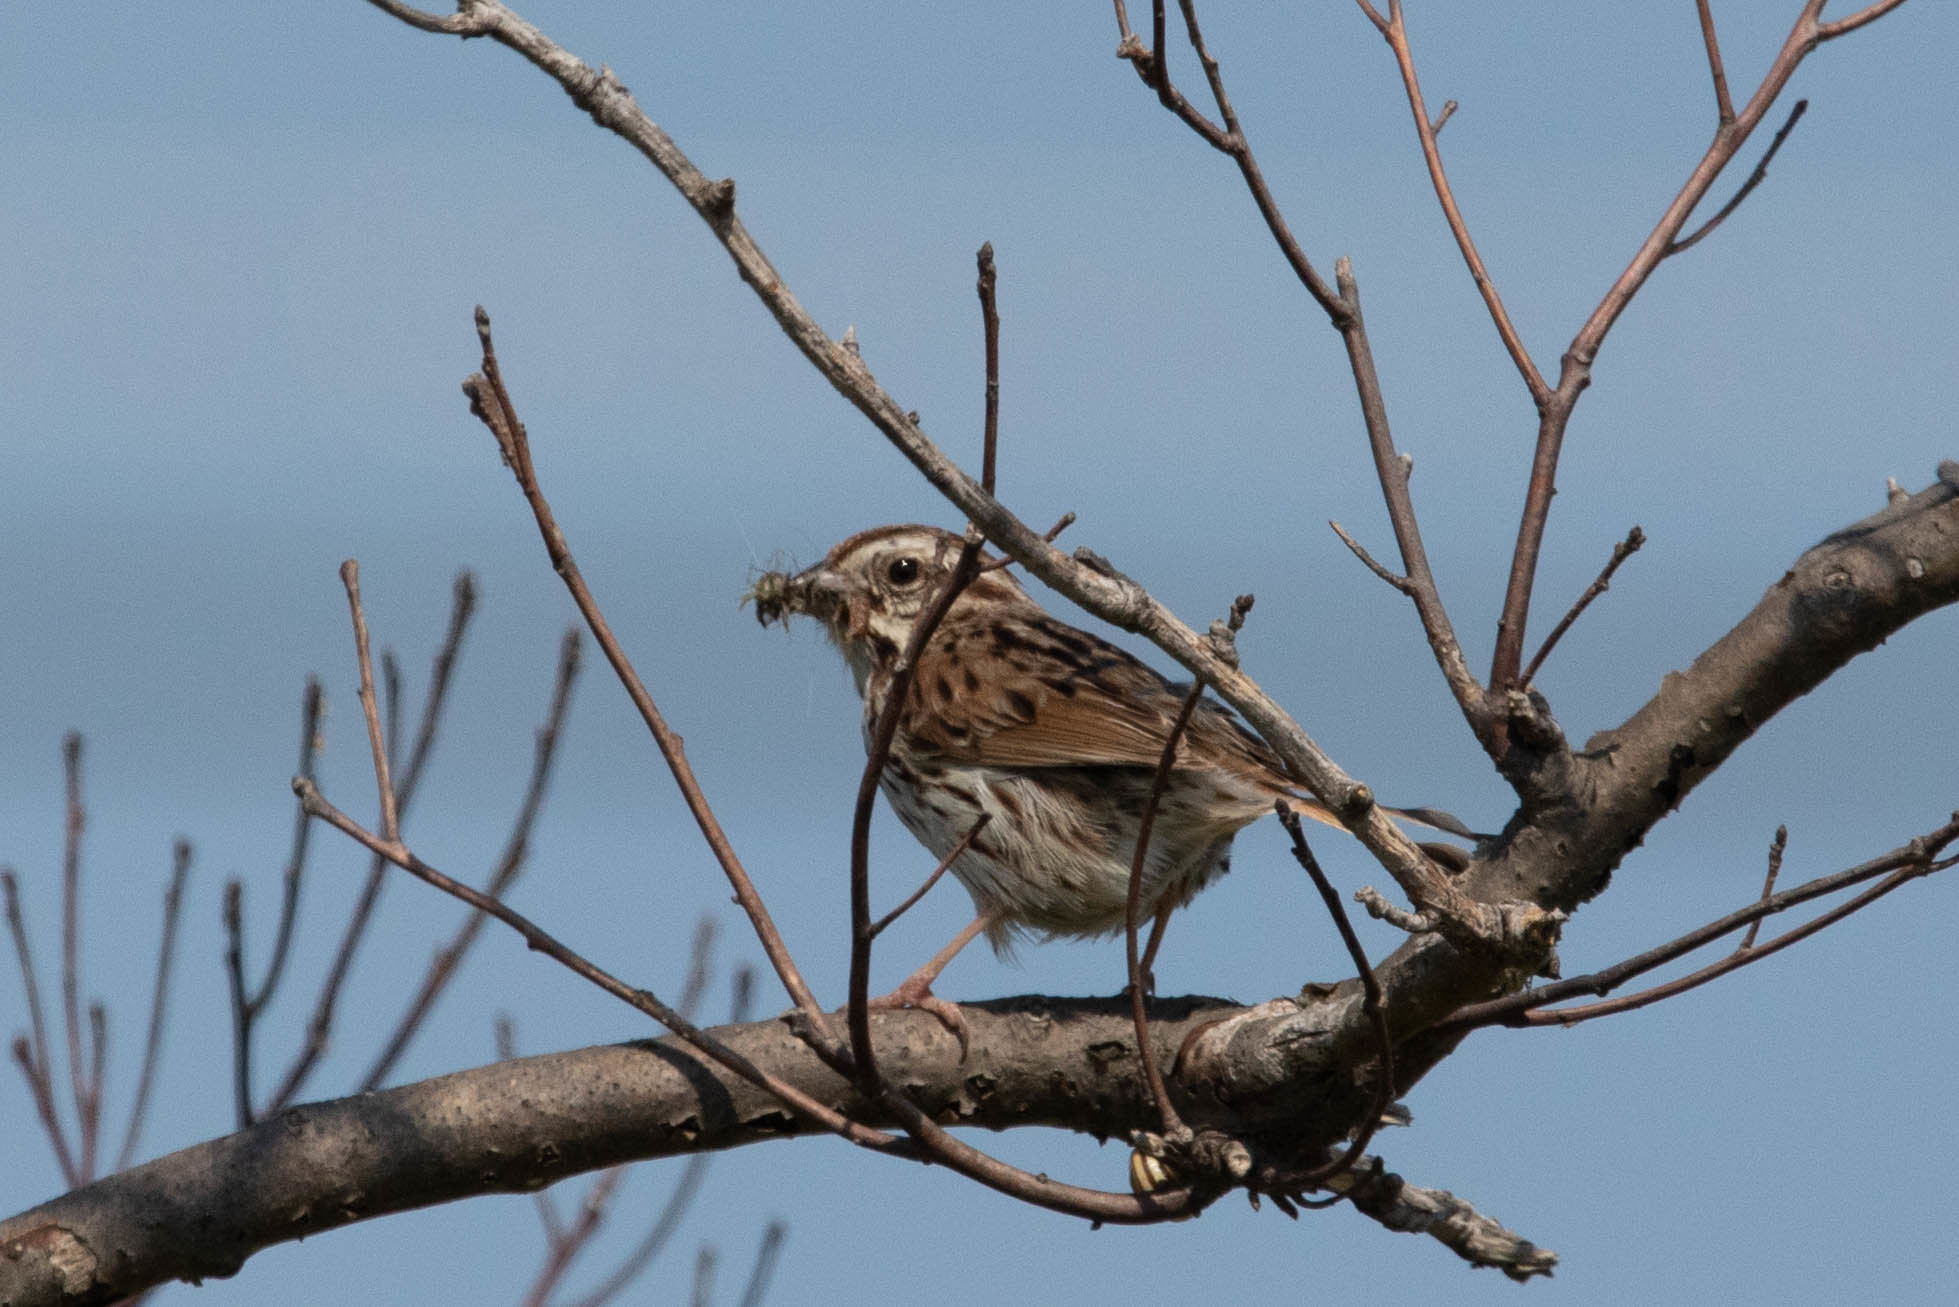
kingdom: Animalia
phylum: Chordata
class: Aves
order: Passeriformes
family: Passerellidae
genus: Melospiza
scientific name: Melospiza melodia
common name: Song sparrow
